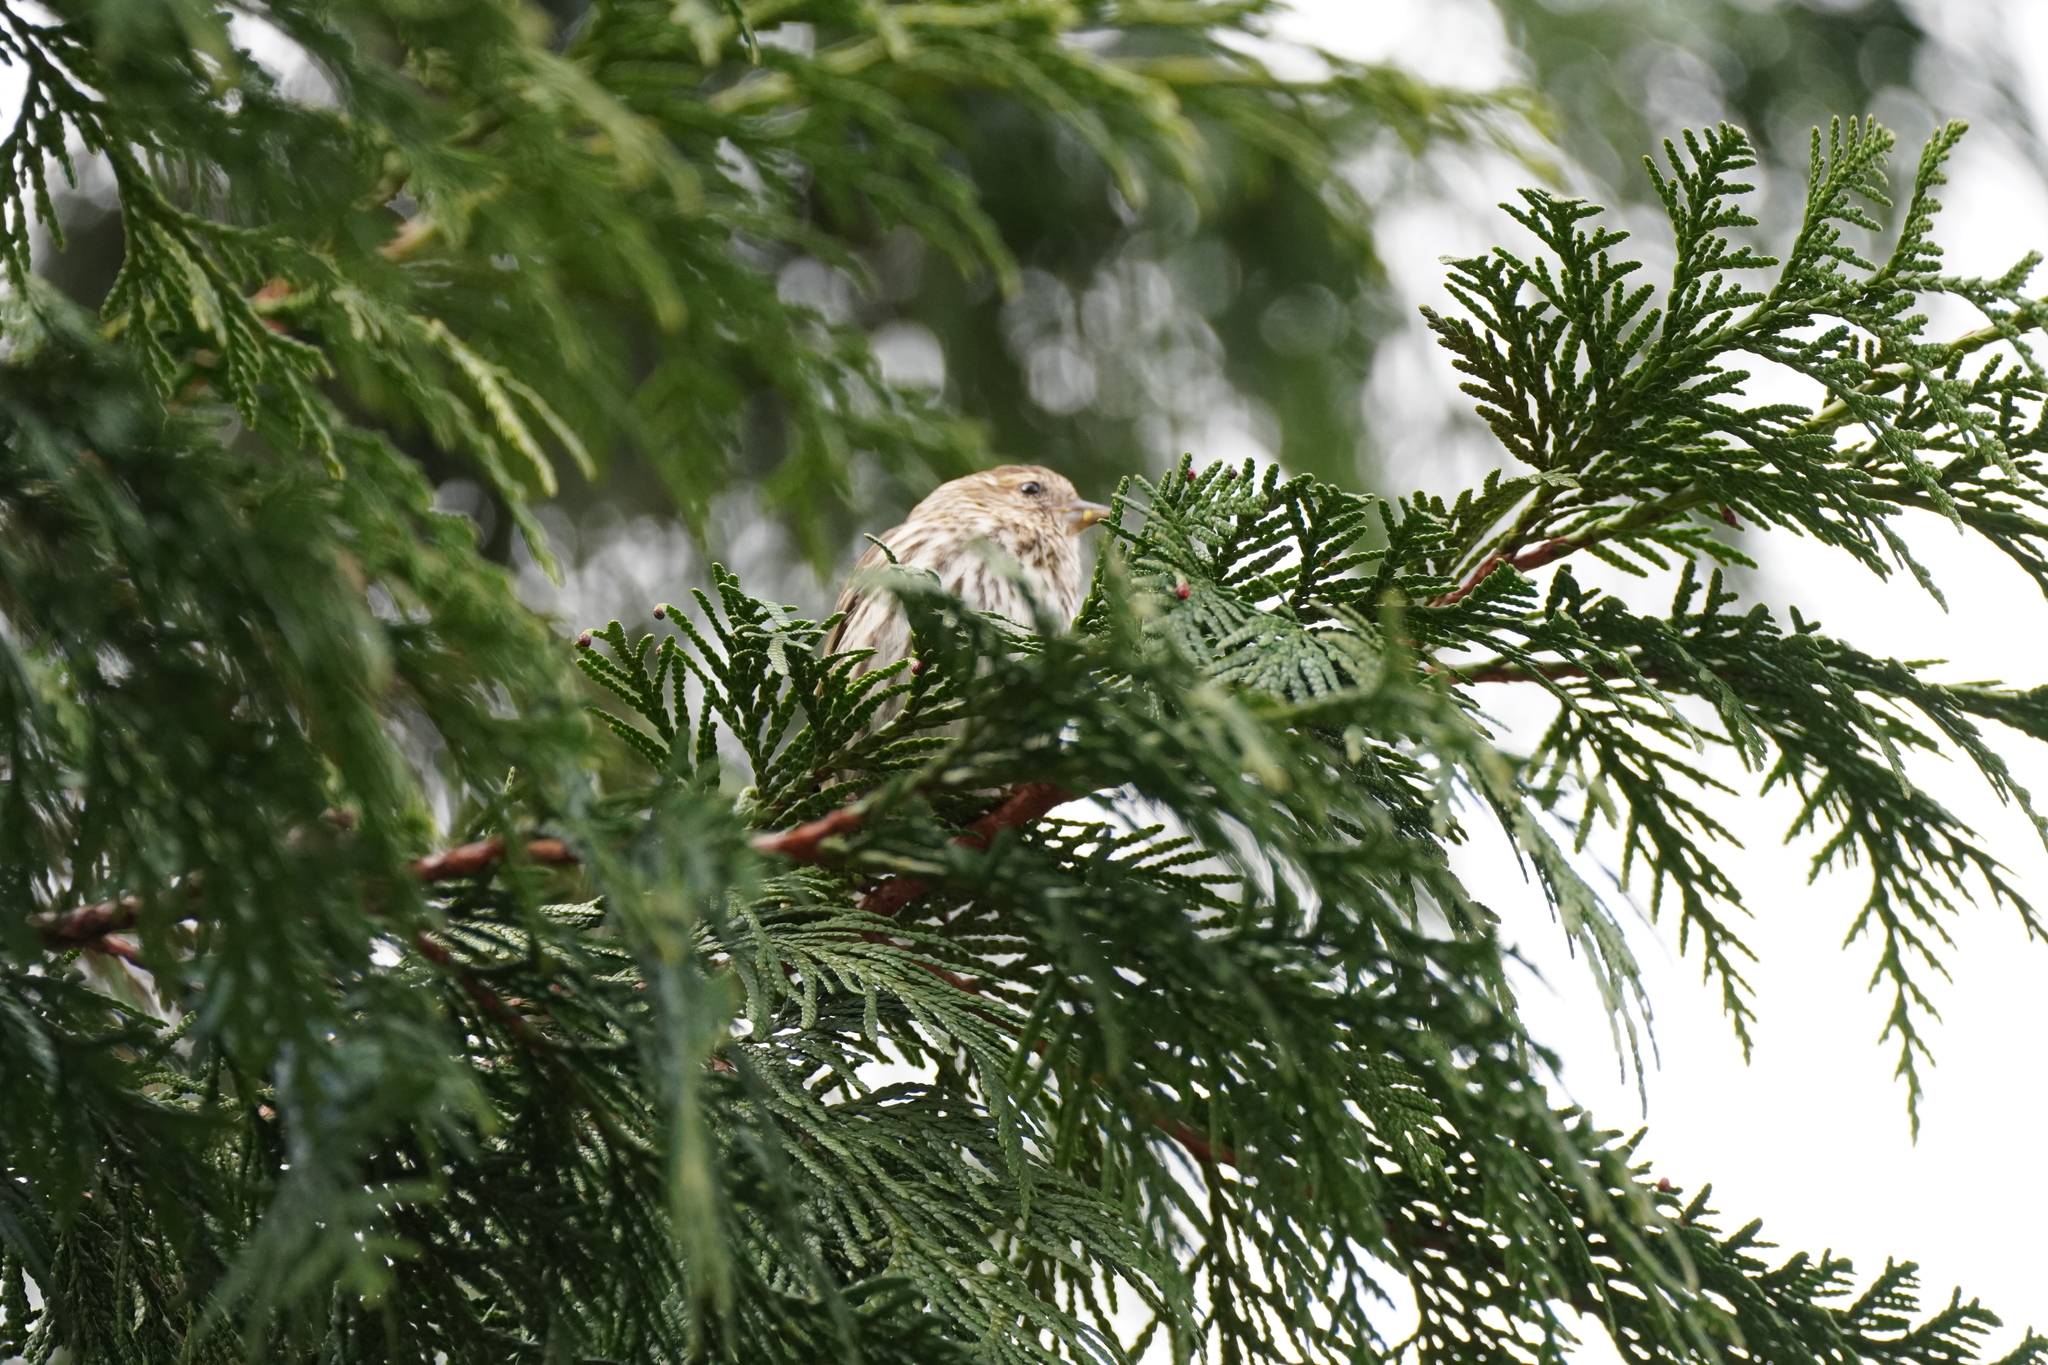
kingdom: Animalia
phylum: Chordata
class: Aves
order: Passeriformes
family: Fringillidae
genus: Spinus
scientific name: Spinus pinus
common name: Pine siskin
